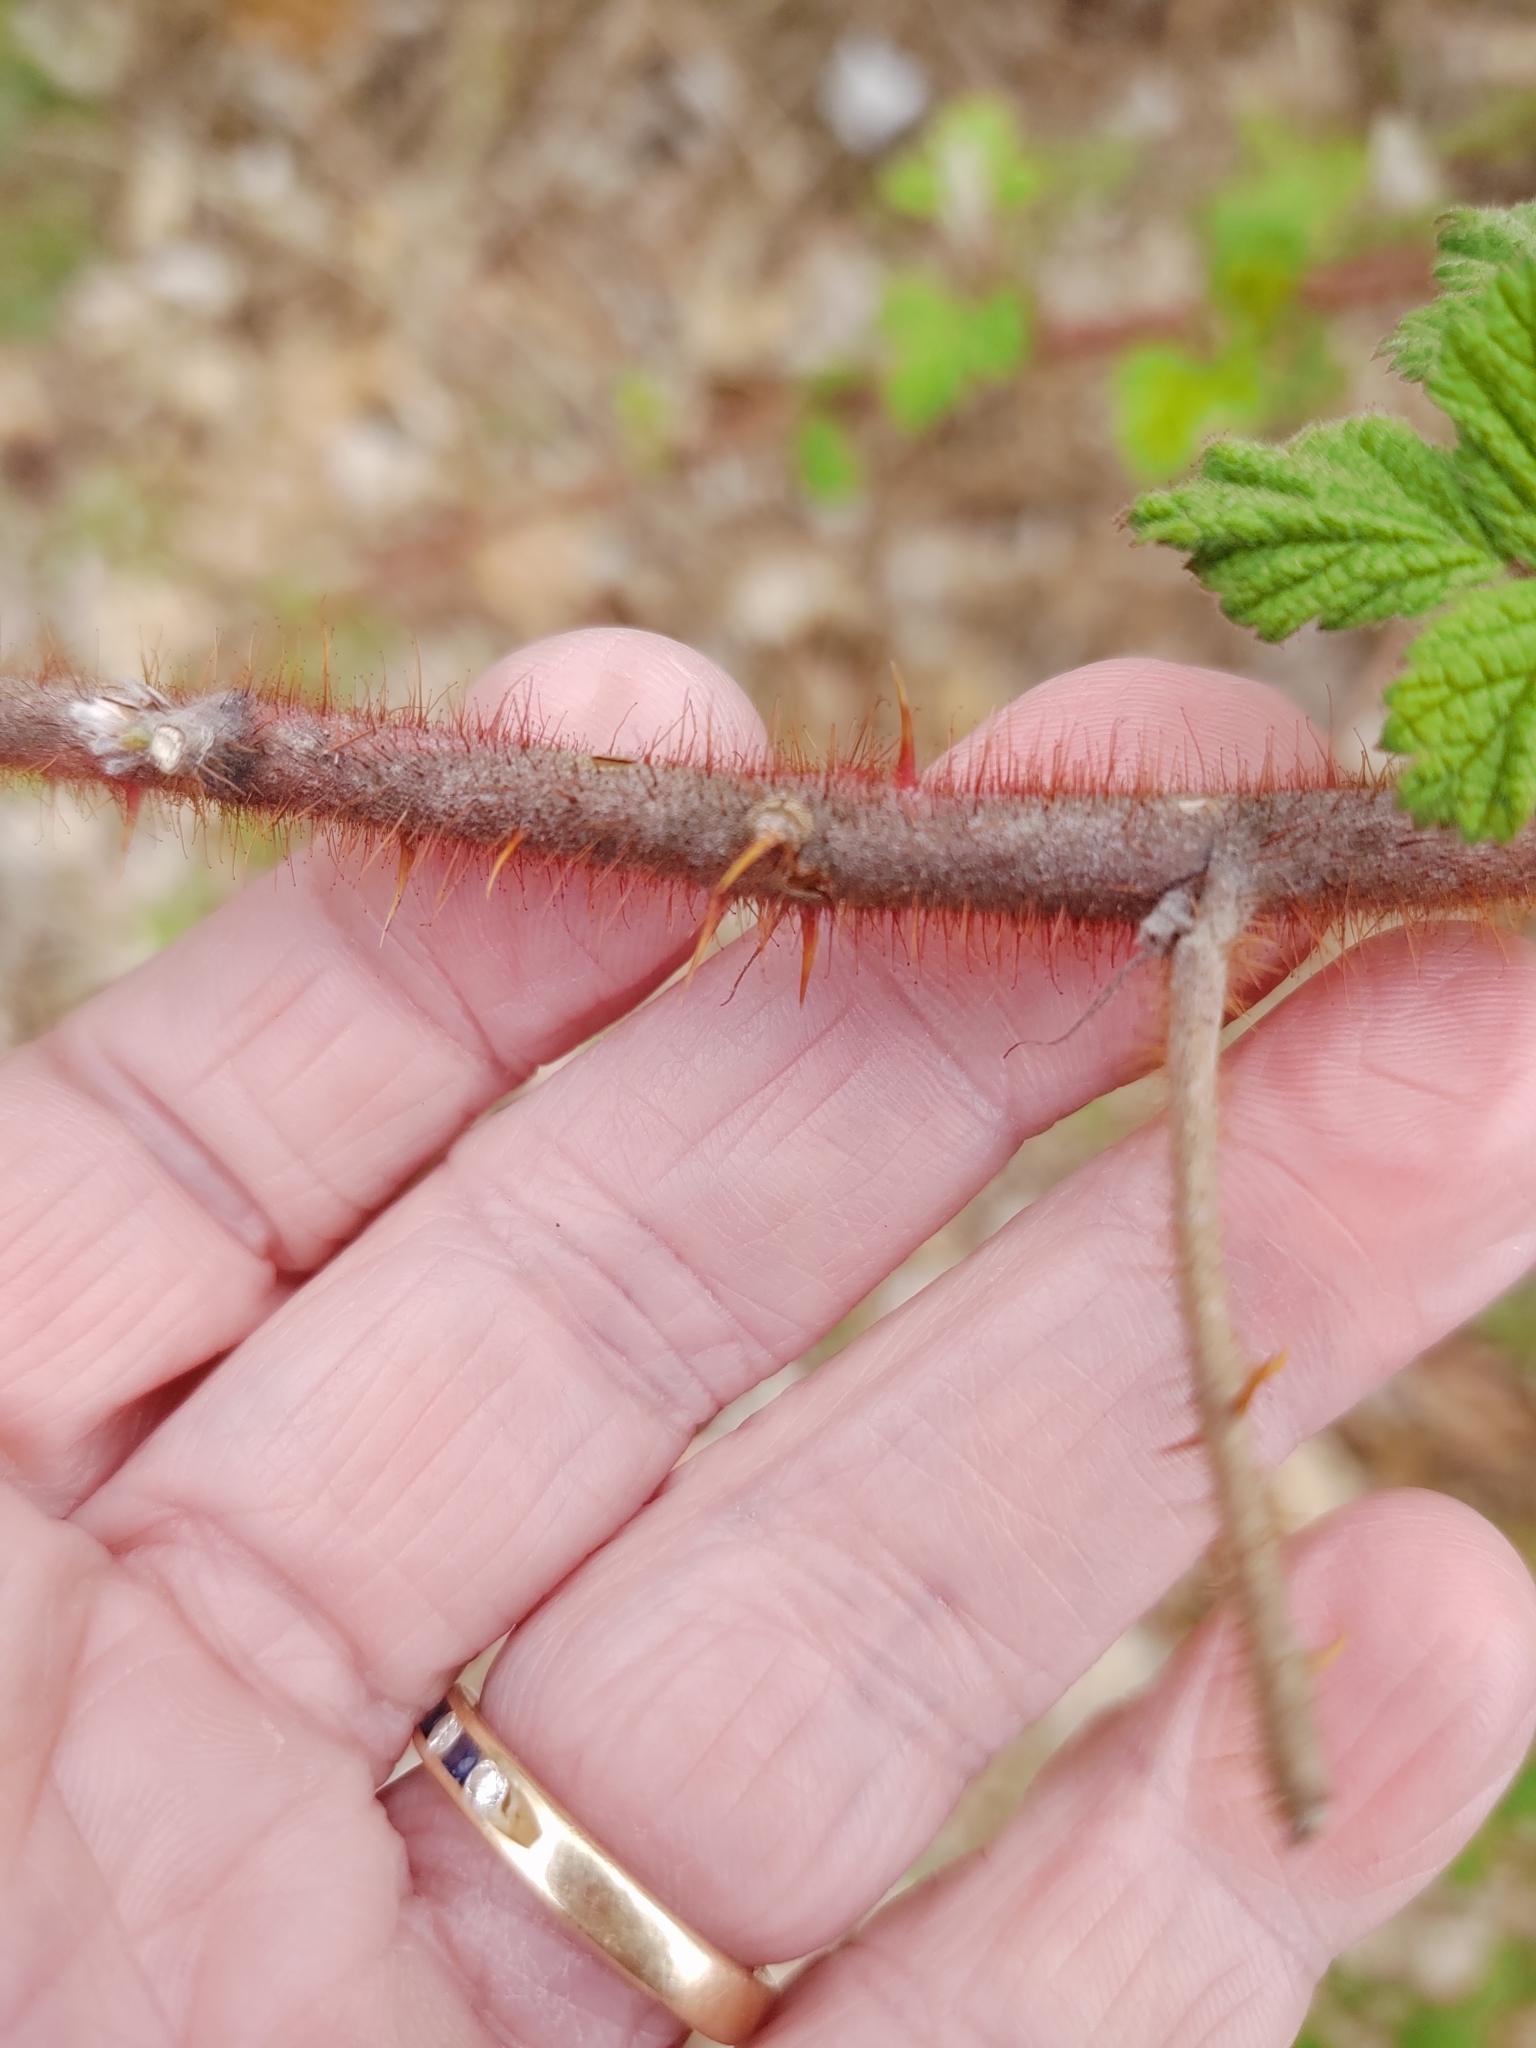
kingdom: Plantae
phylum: Tracheophyta
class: Magnoliopsida
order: Rosales
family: Rosaceae
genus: Rubus
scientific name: Rubus phoenicolasius
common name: Japanese wineberry
